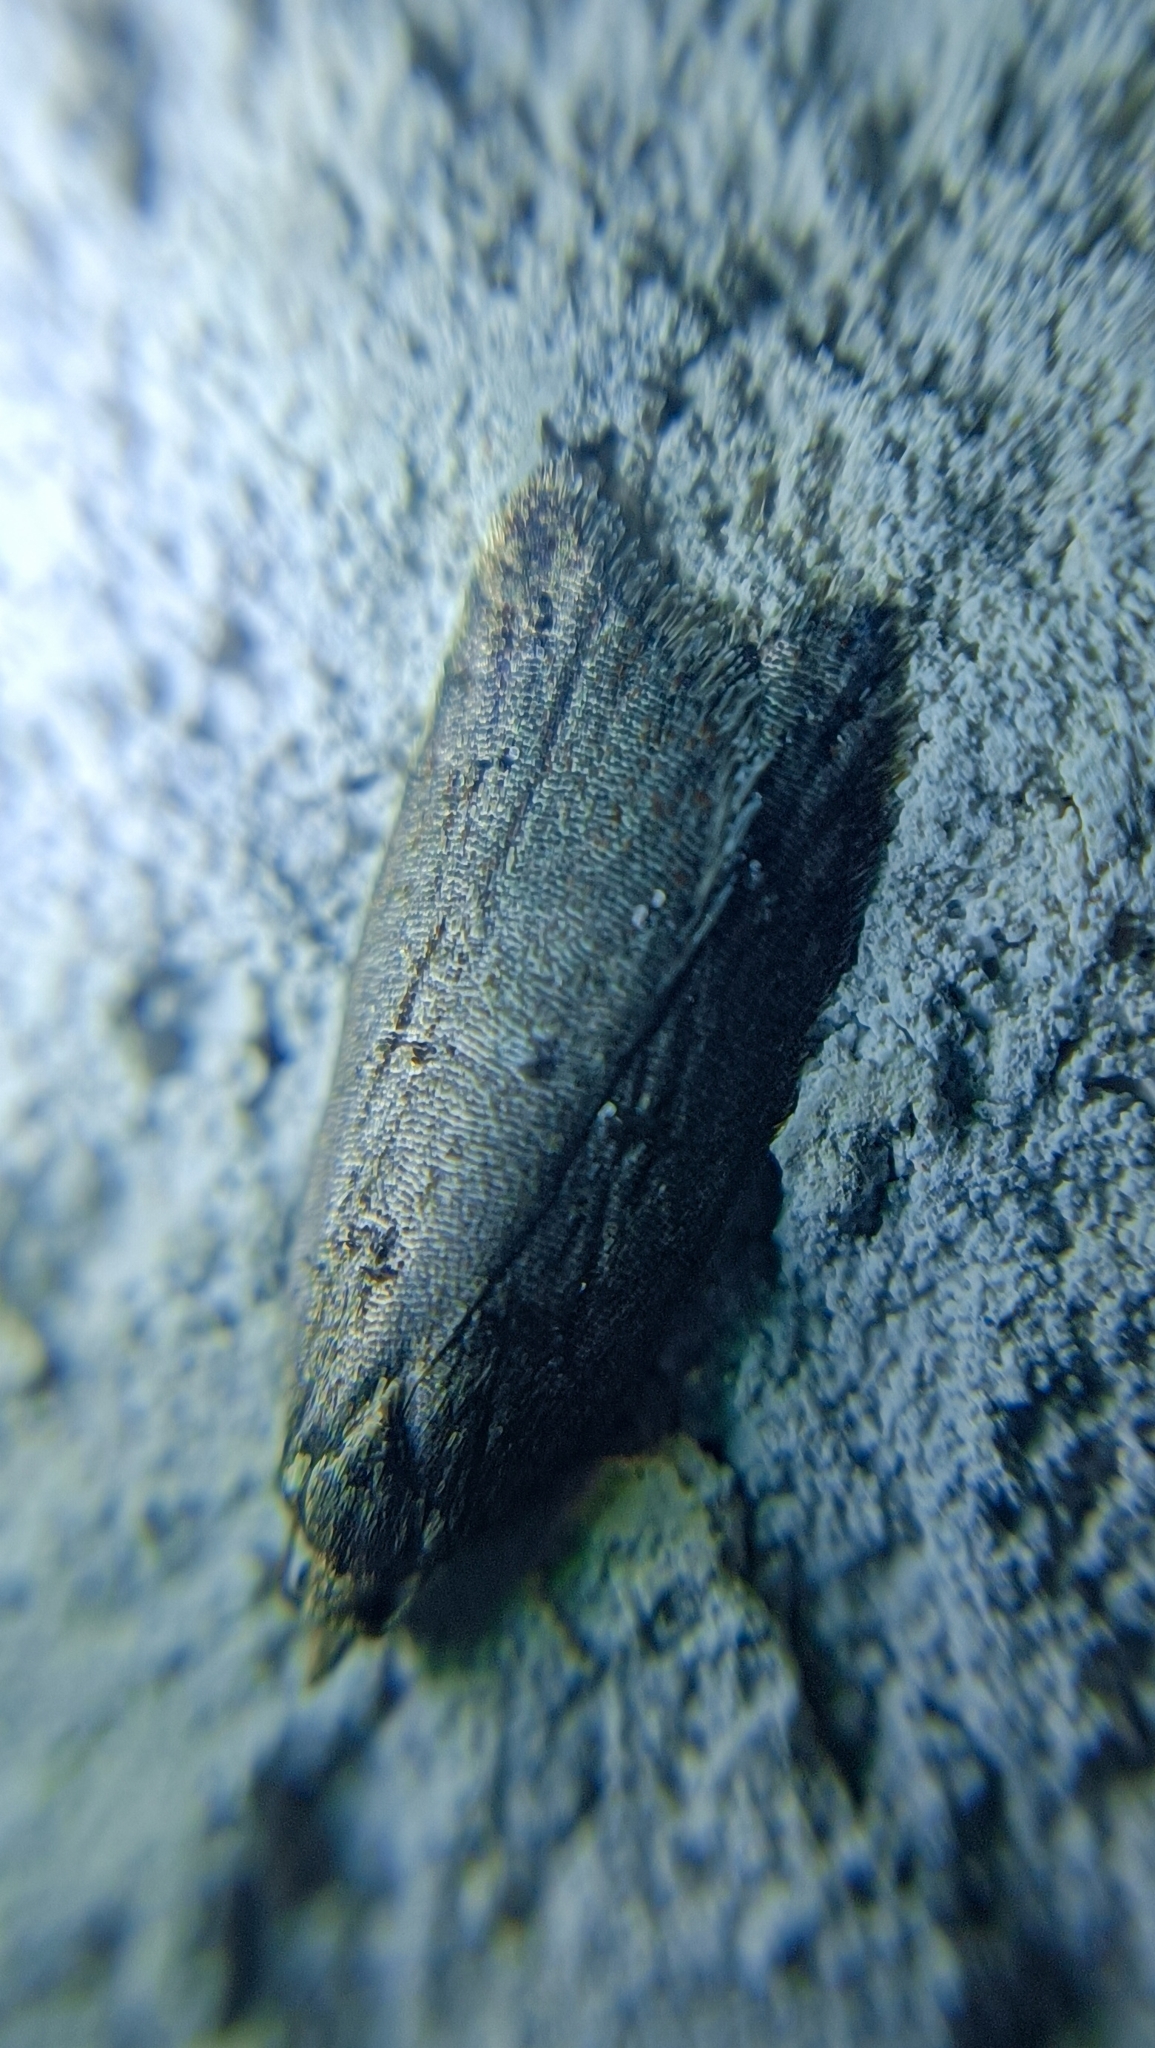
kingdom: Animalia
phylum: Arthropoda
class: Insecta
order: Lepidoptera
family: Tortricidae
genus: Acleris
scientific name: Acleris umbrana
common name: Dark-streaked button
